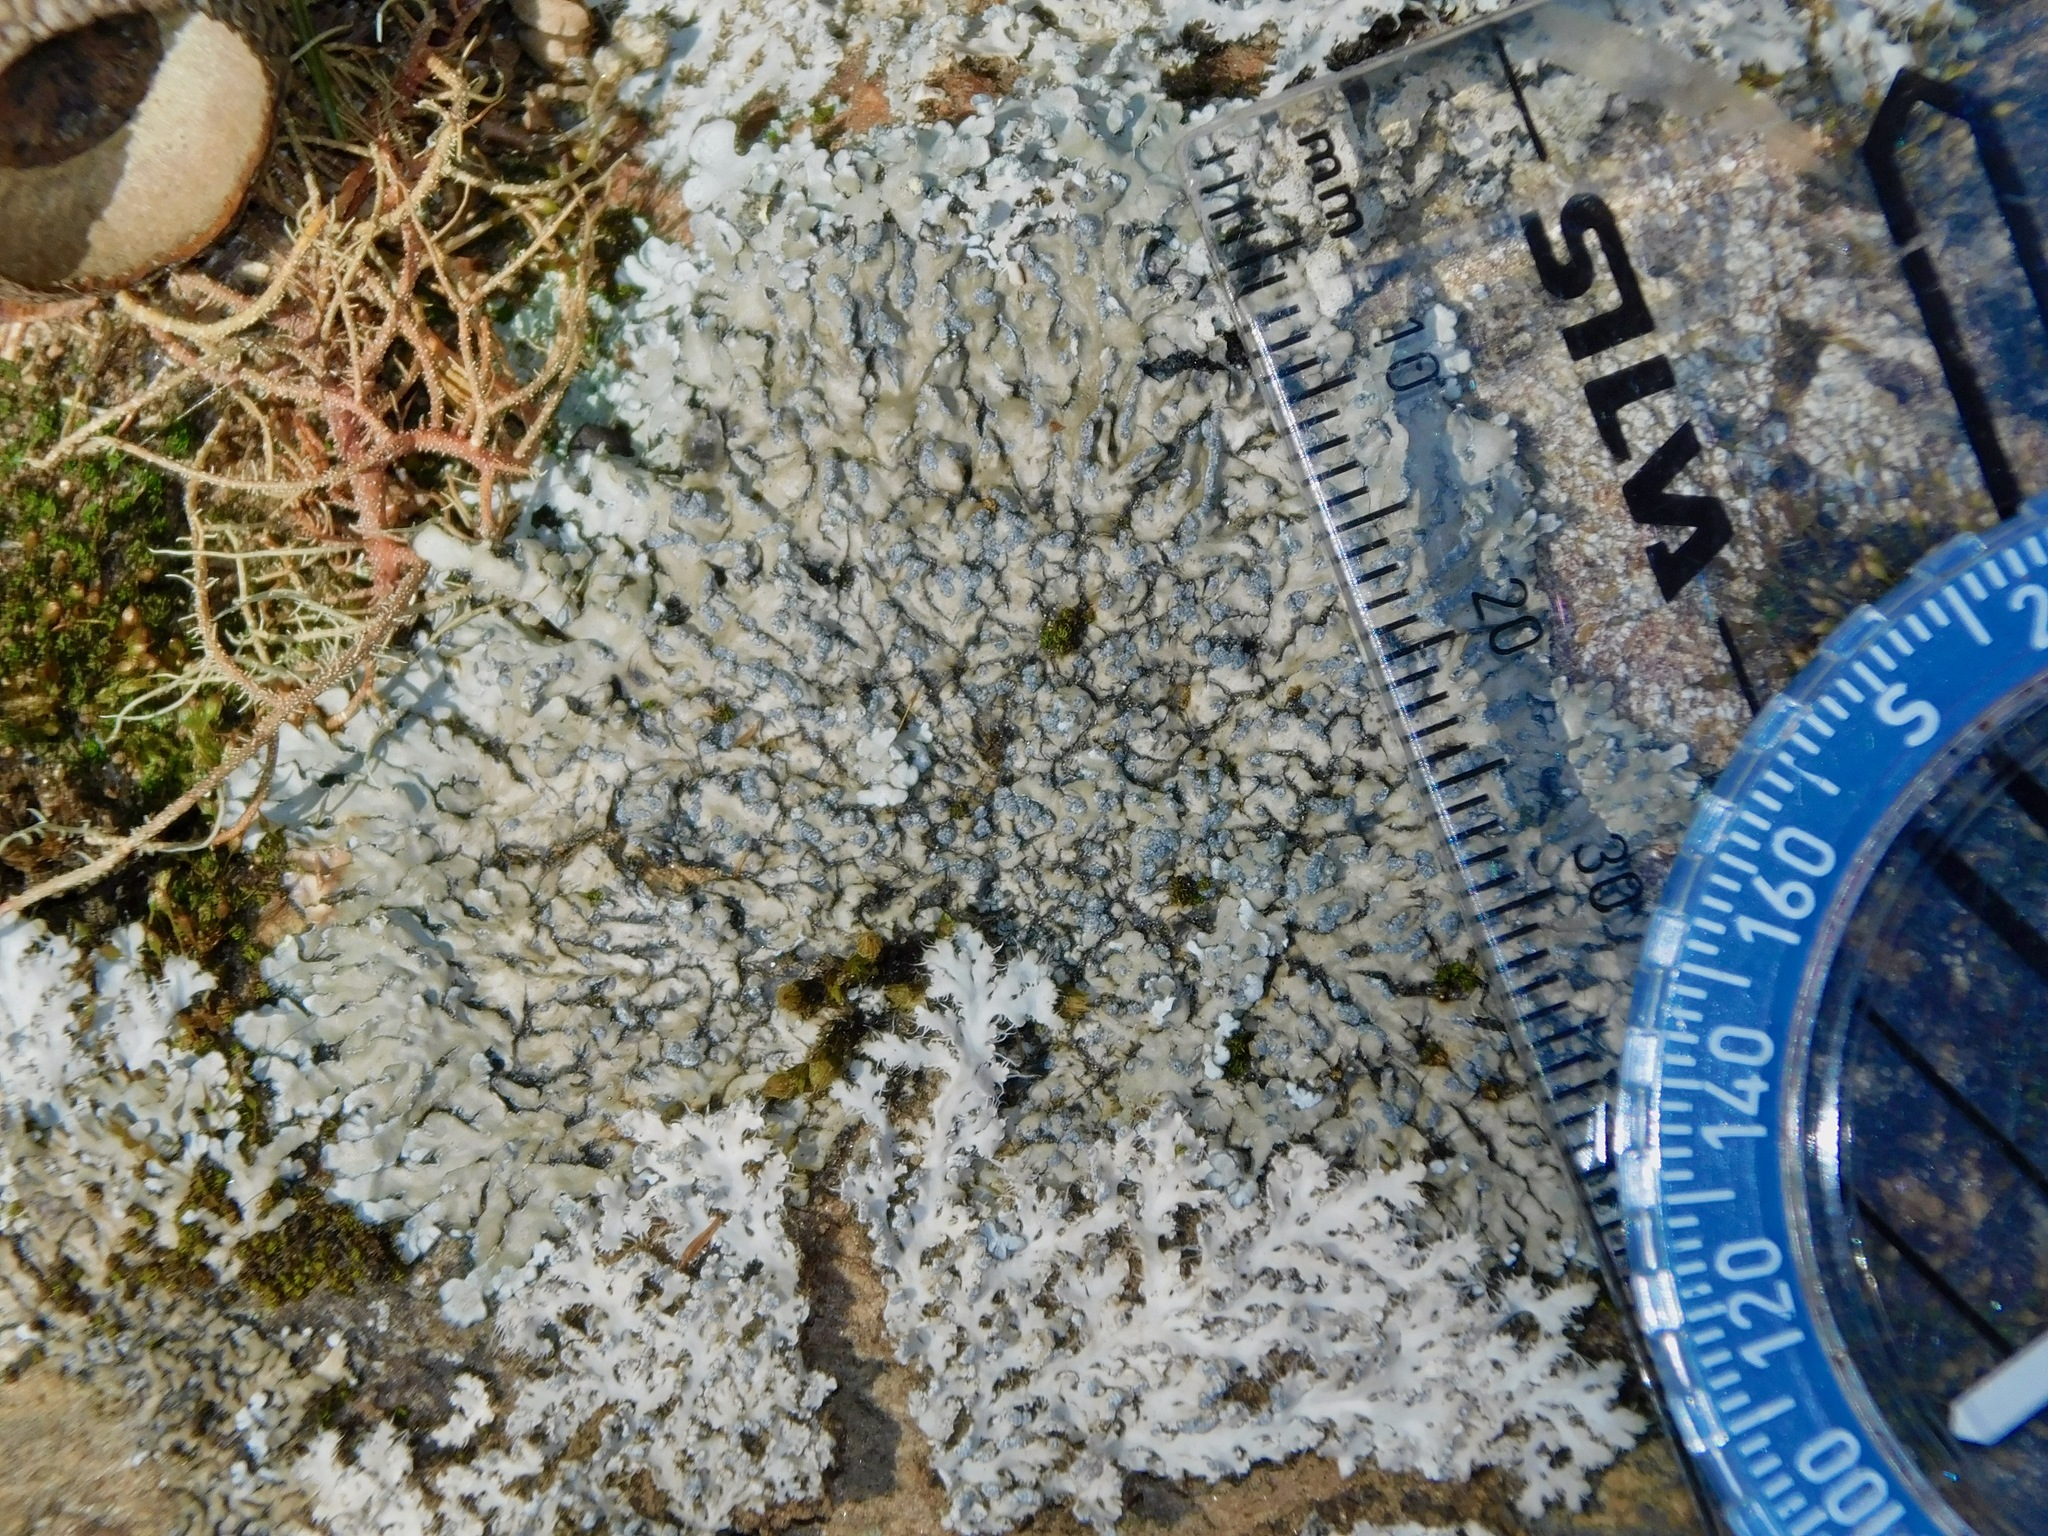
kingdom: Fungi
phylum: Ascomycota
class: Lecanoromycetes
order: Caliciales
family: Physciaceae
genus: Heterodermia
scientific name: Heterodermia speciosa
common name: Powdered fringe lichen
